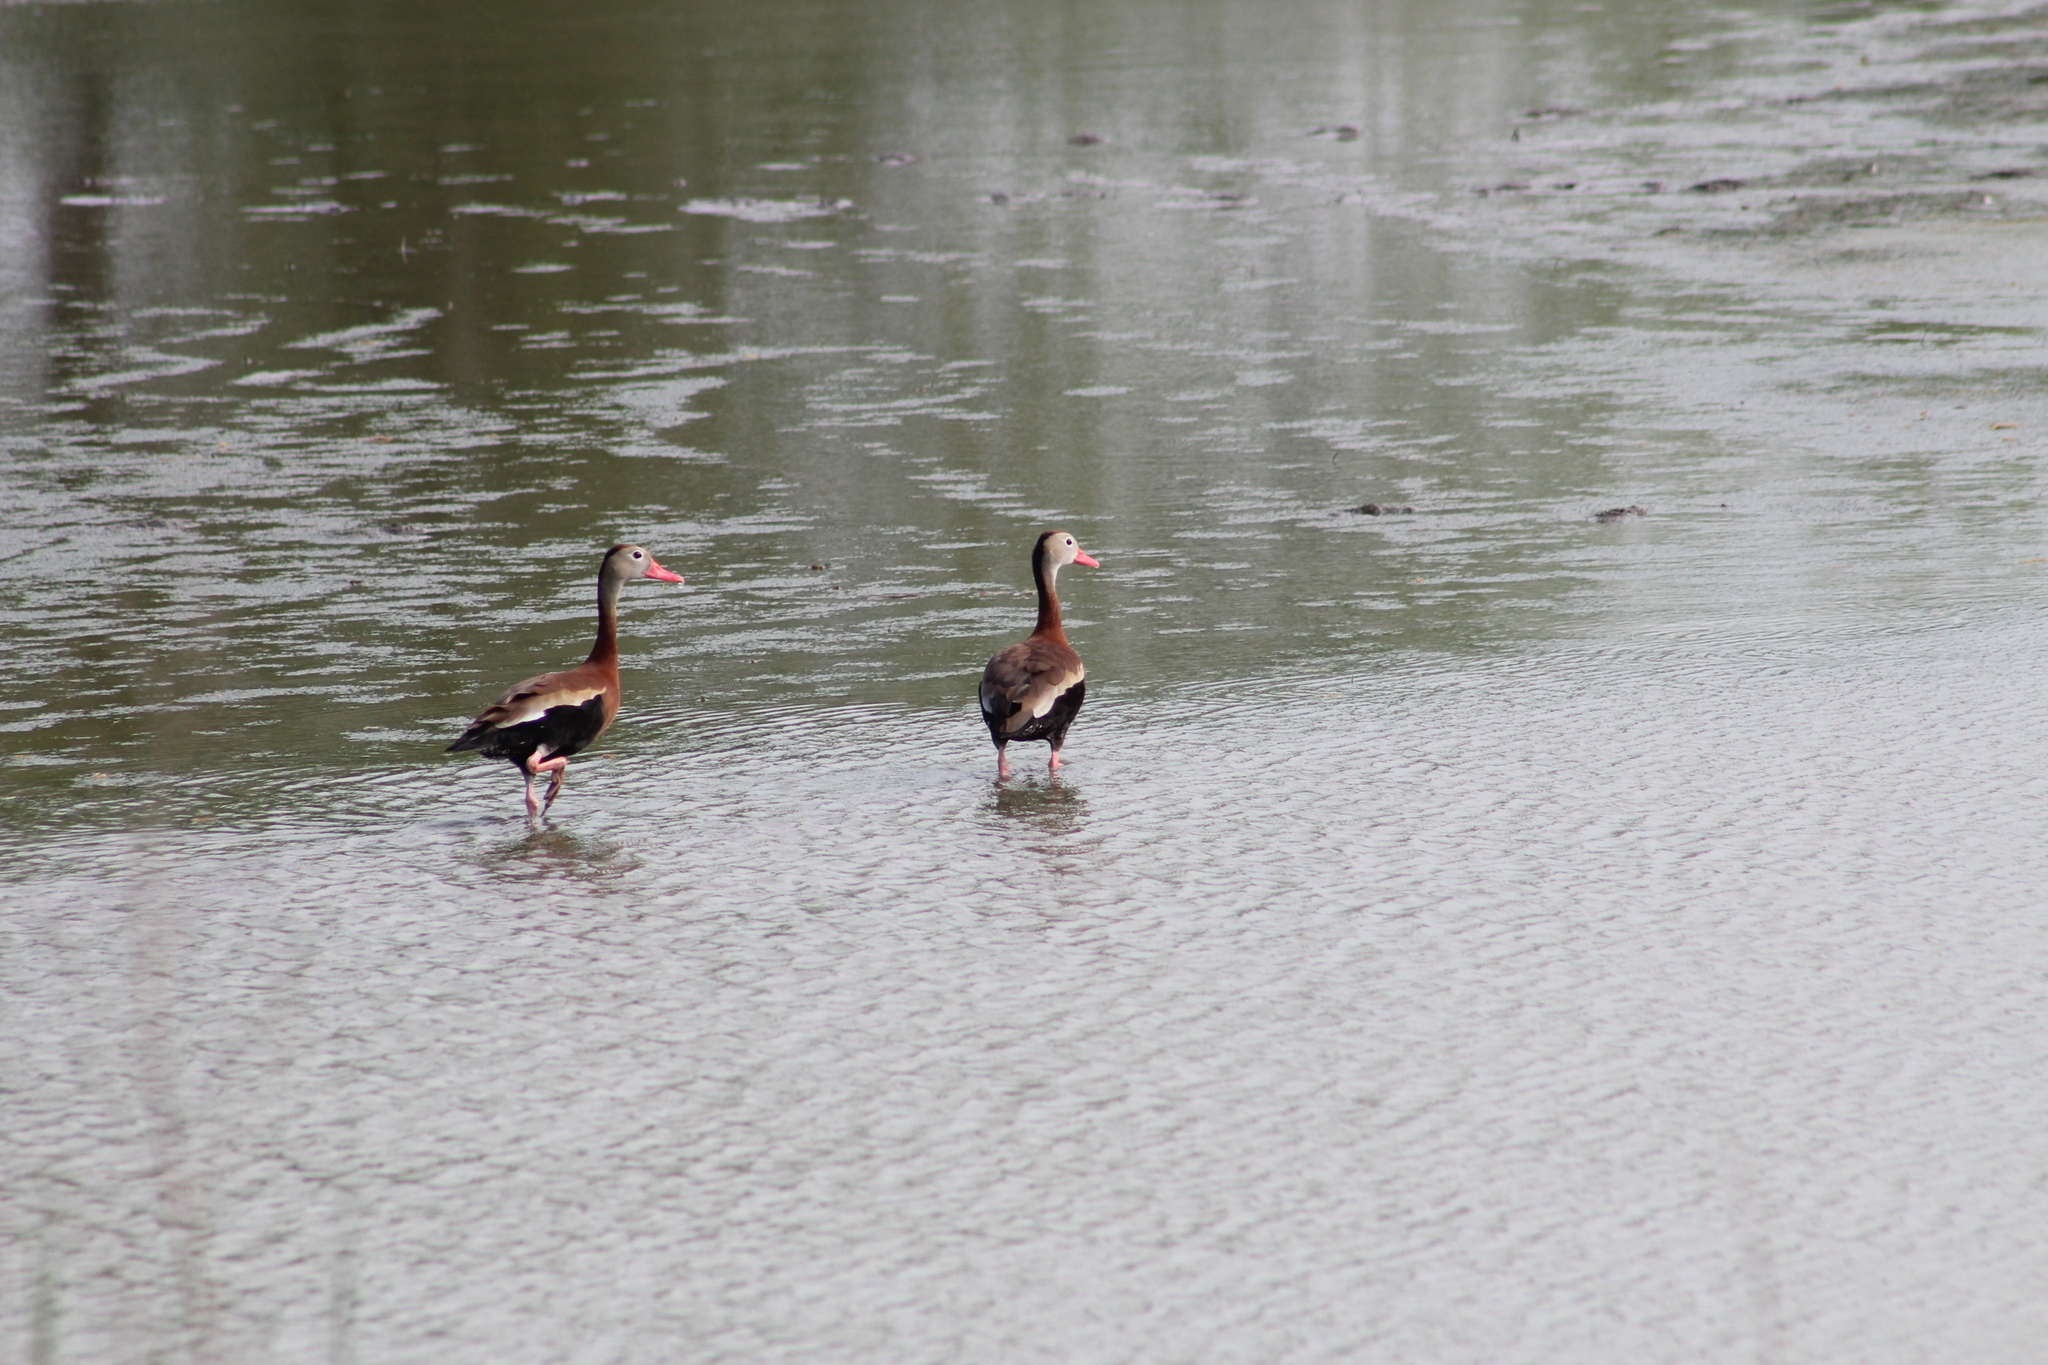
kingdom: Animalia
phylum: Chordata
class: Aves
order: Anseriformes
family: Anatidae
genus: Dendrocygna
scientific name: Dendrocygna autumnalis
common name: Black-bellied whistling duck
